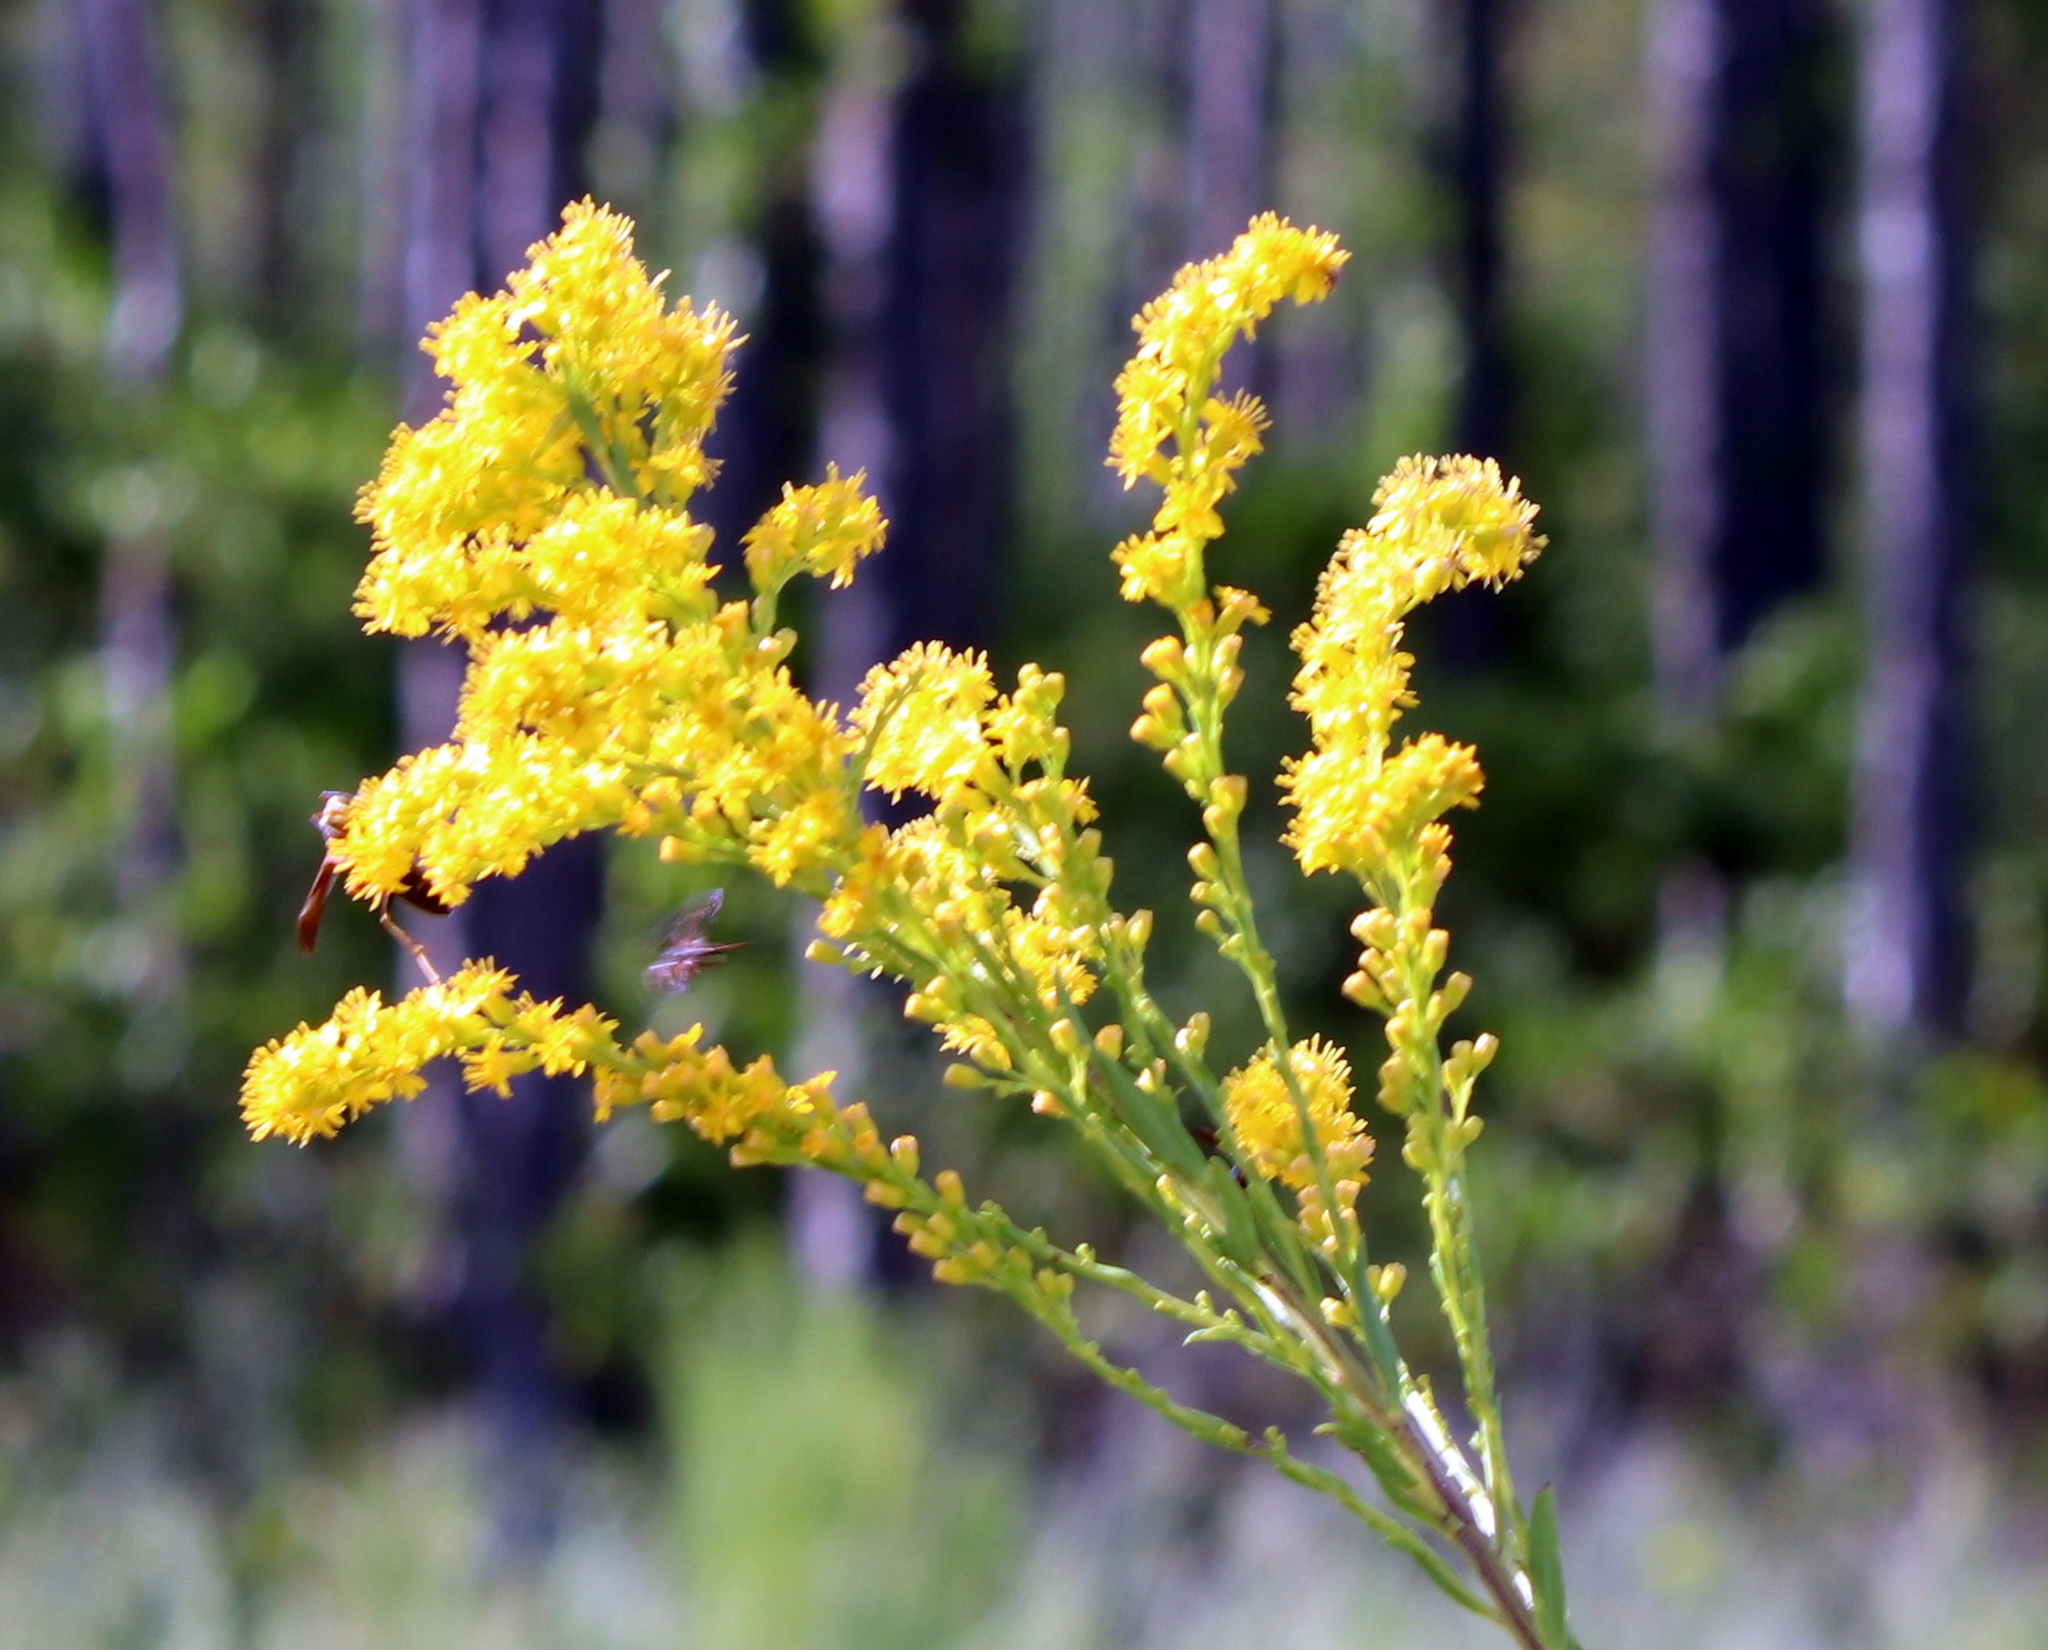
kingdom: Plantae
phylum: Tracheophyta
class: Magnoliopsida
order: Asterales
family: Asteraceae
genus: Solidago
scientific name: Solidago mexicana
